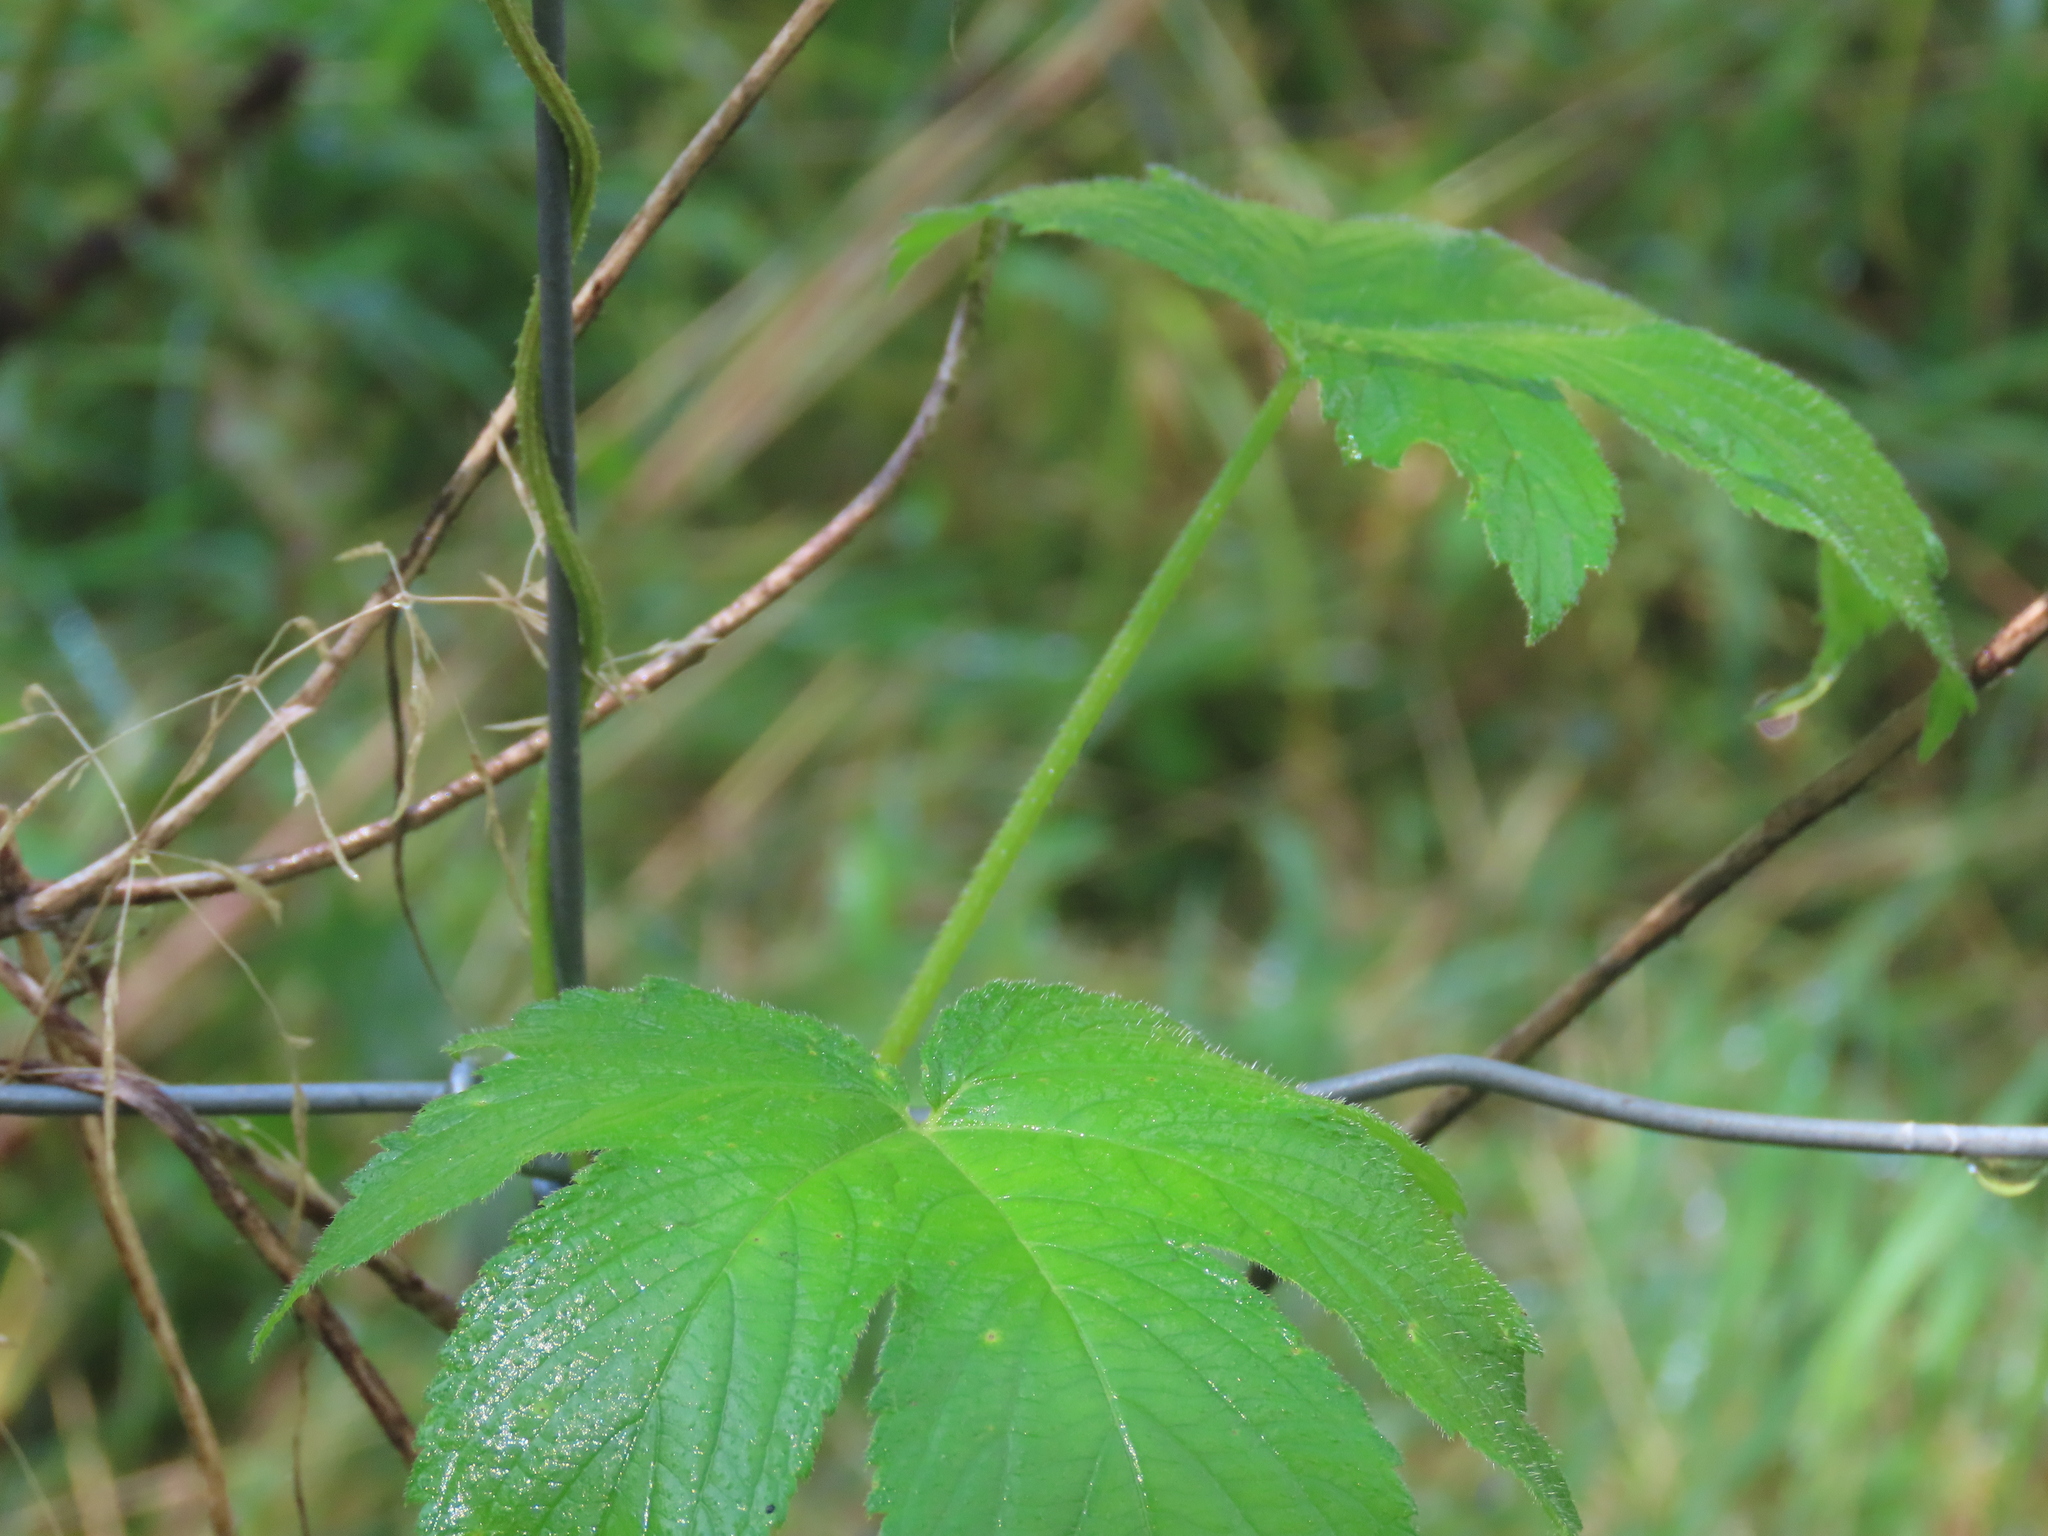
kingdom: Plantae
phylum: Tracheophyta
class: Magnoliopsida
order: Rosales
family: Cannabaceae
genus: Humulus
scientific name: Humulus scandens
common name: Japanese hop
